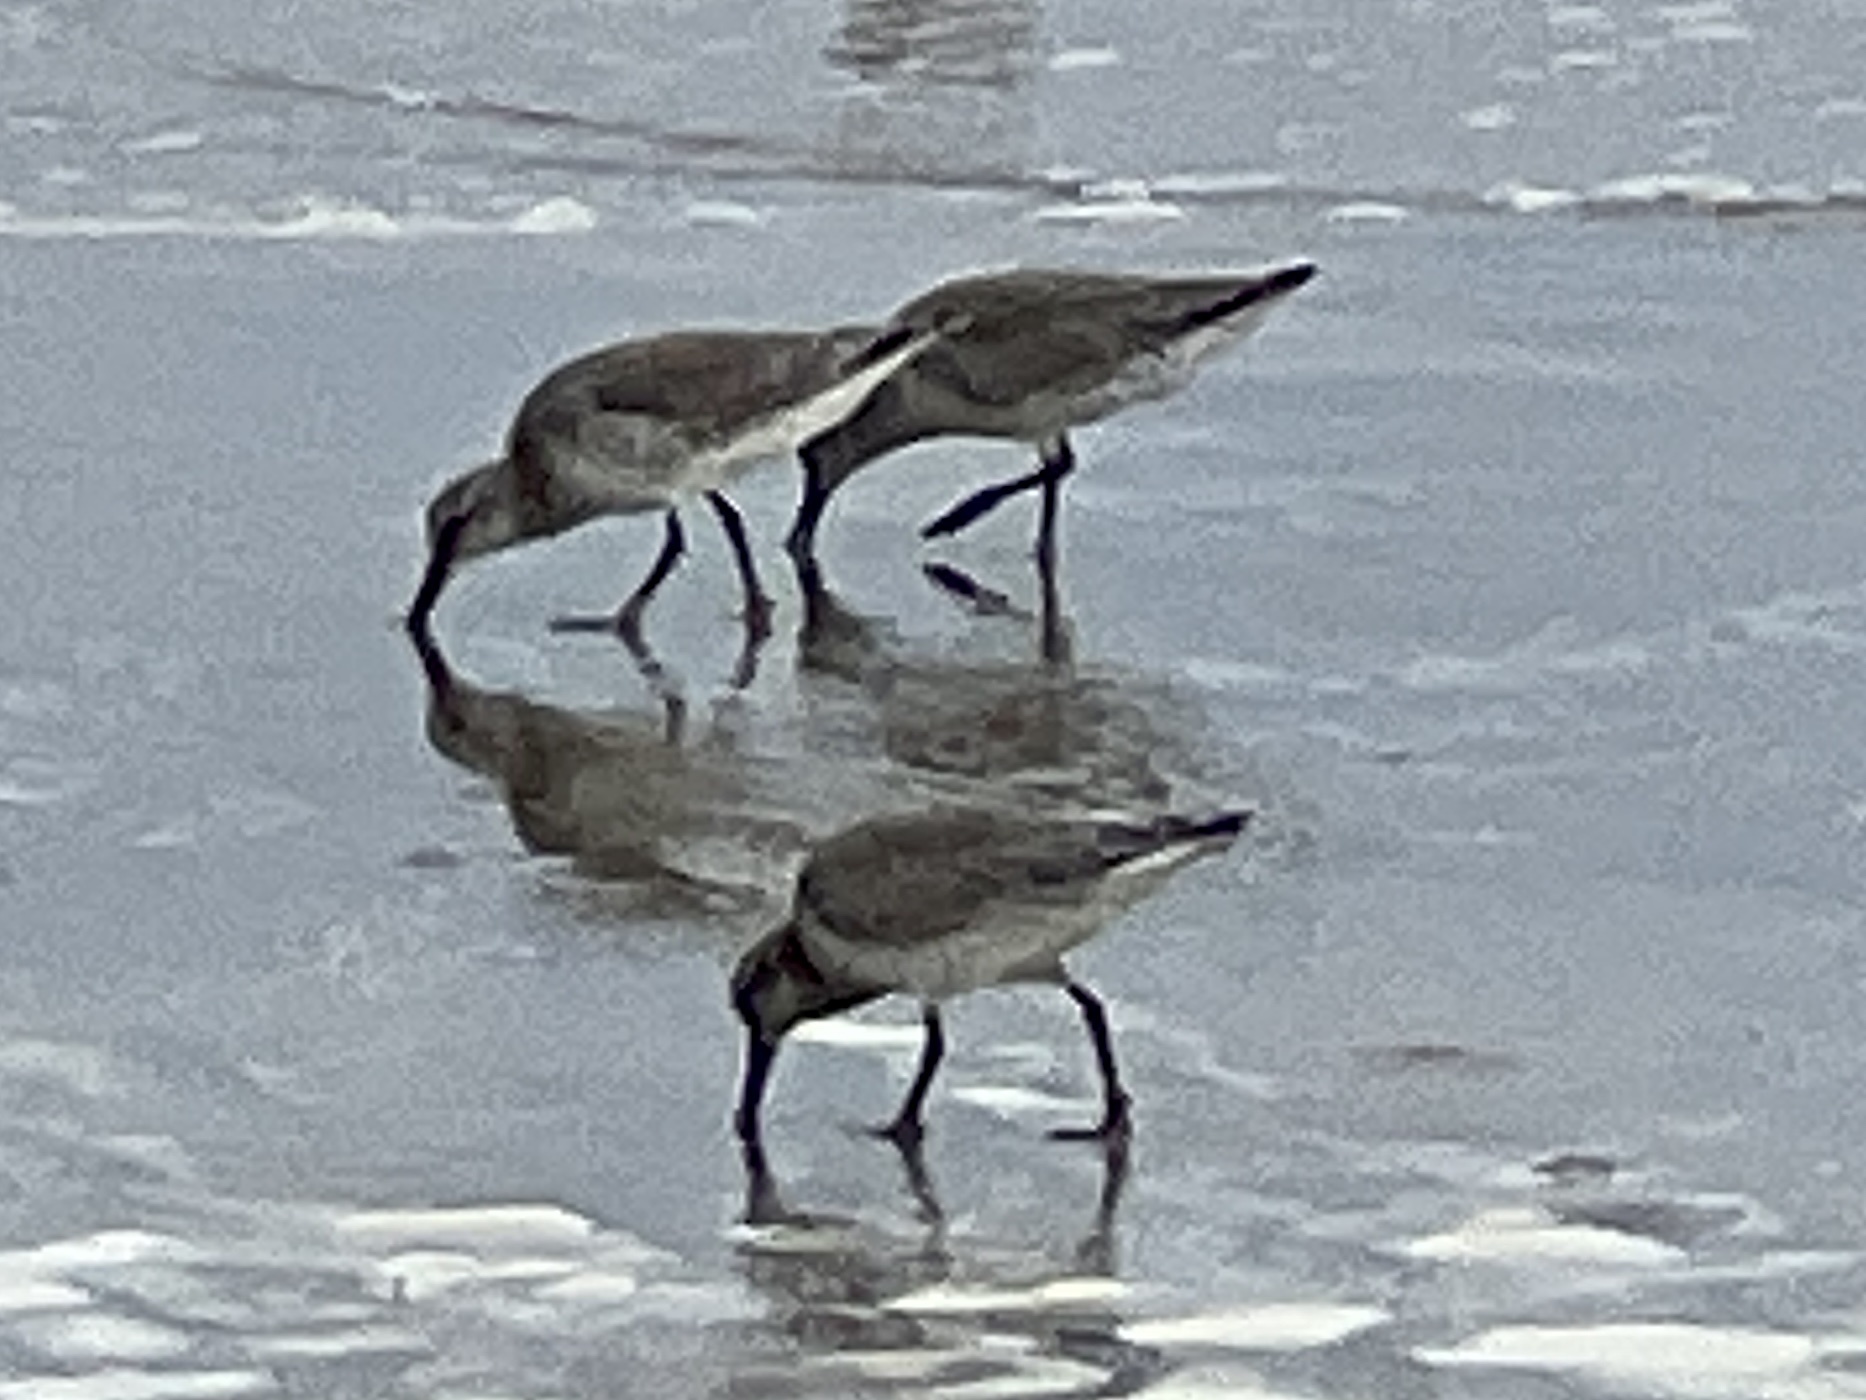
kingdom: Animalia
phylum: Chordata
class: Aves
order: Charadriiformes
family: Scolopacidae
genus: Calidris
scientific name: Calidris canutus
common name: Red knot
